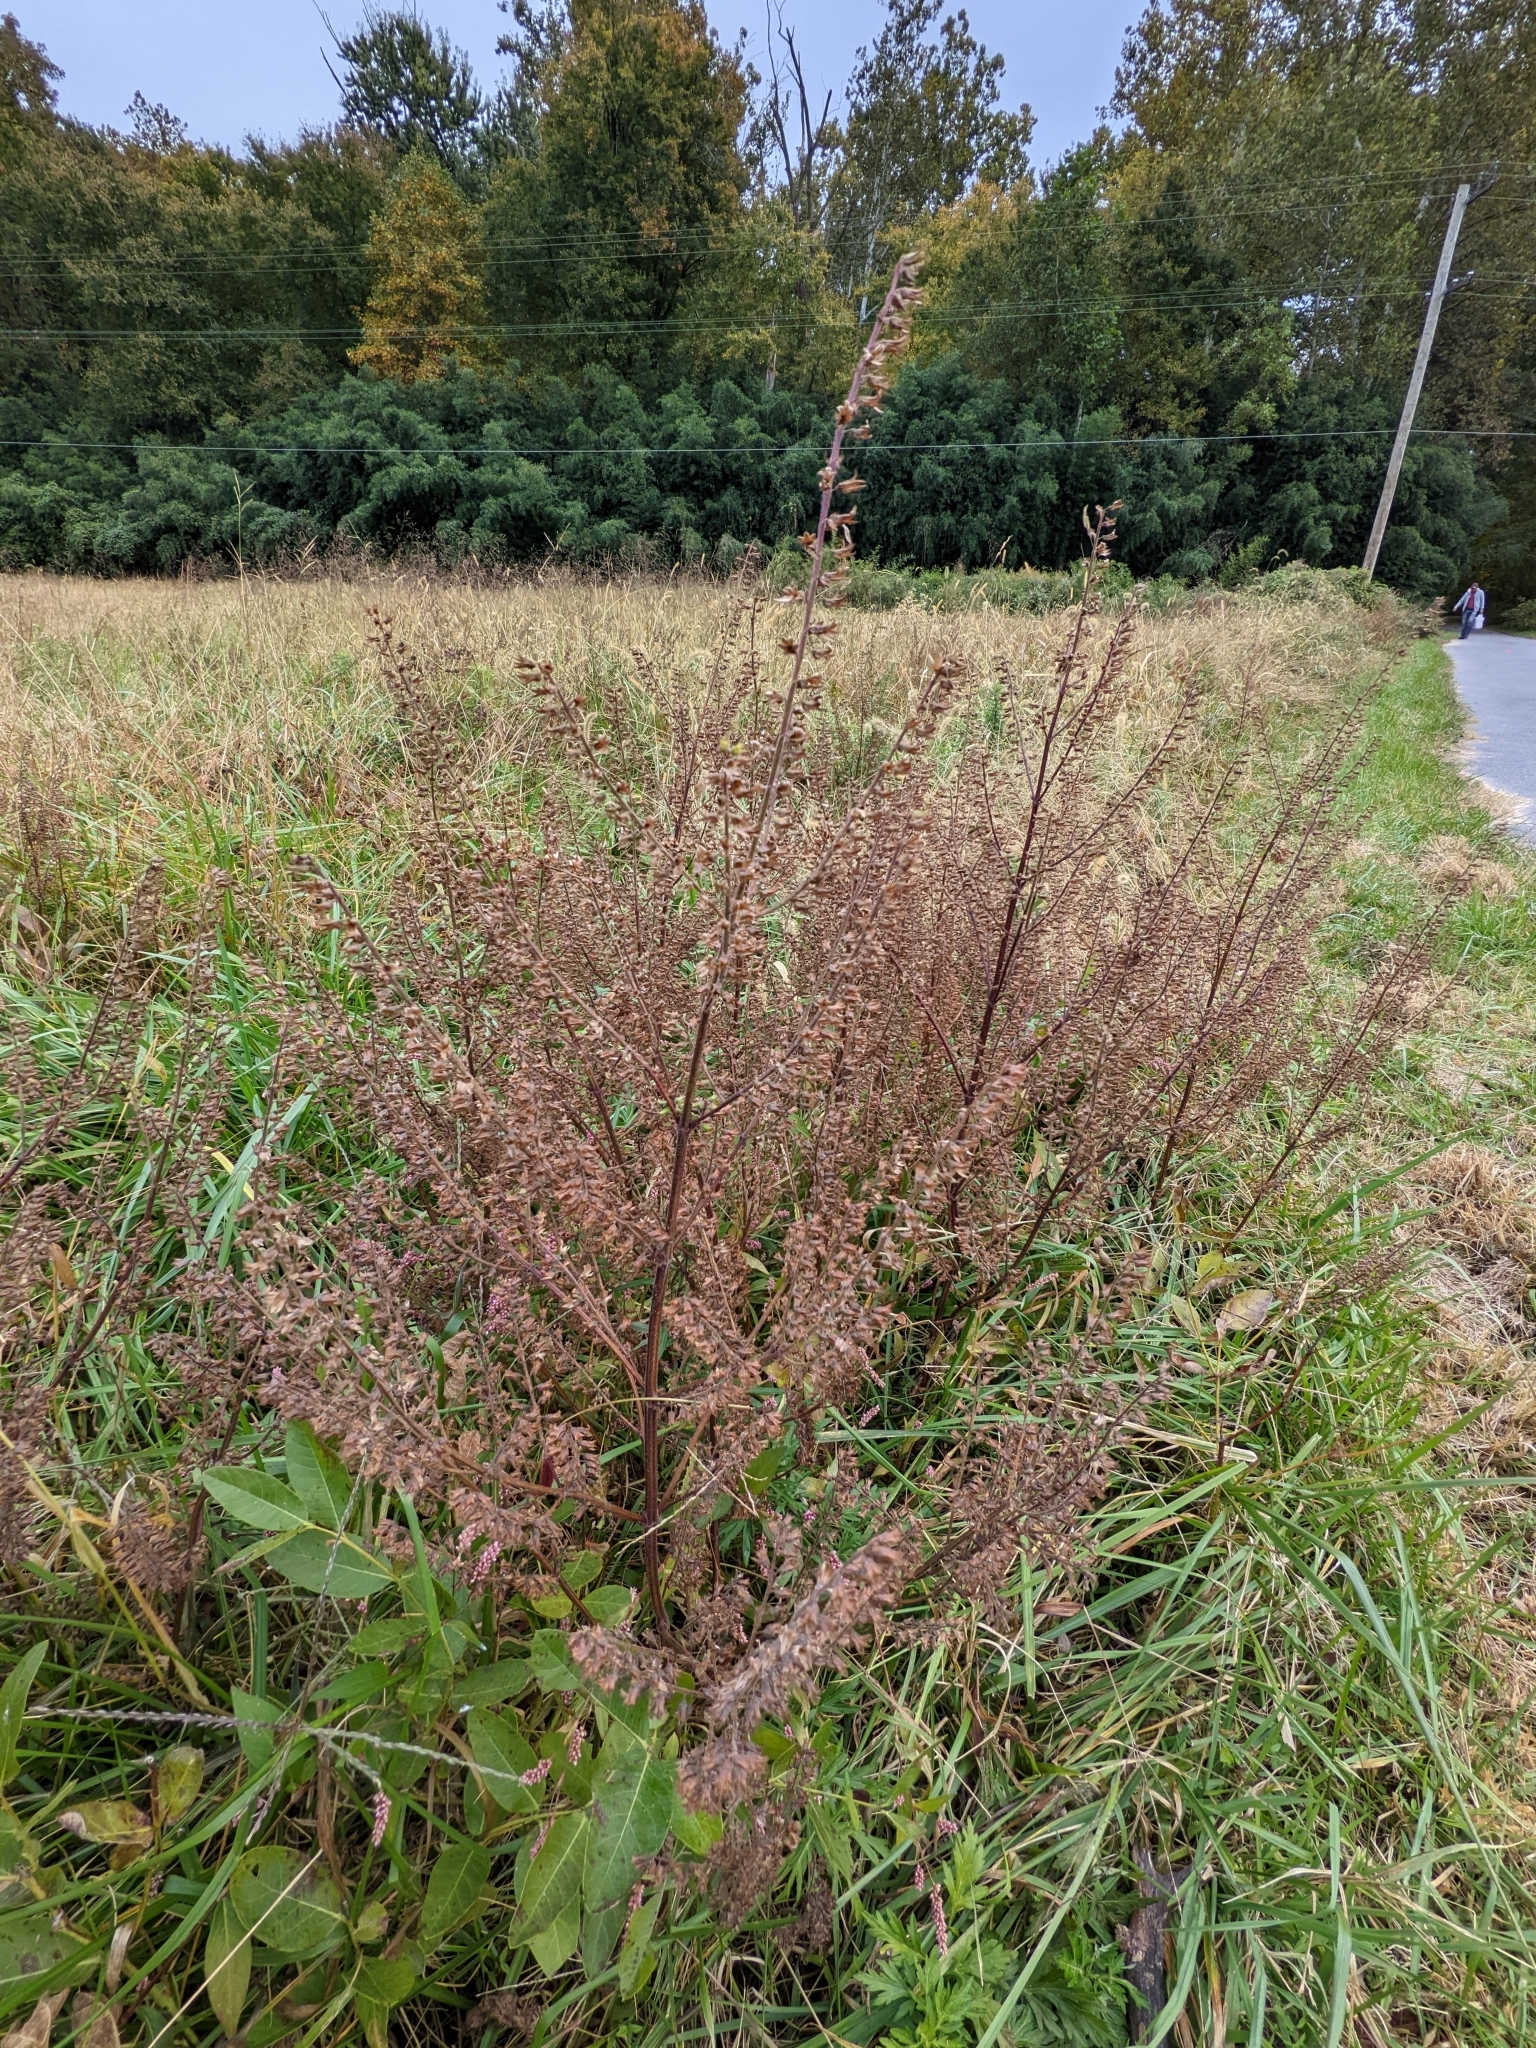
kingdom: Plantae
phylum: Tracheophyta
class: Magnoliopsida
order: Lamiales
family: Lamiaceae
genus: Perilla
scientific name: Perilla frutescens
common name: Perilla
